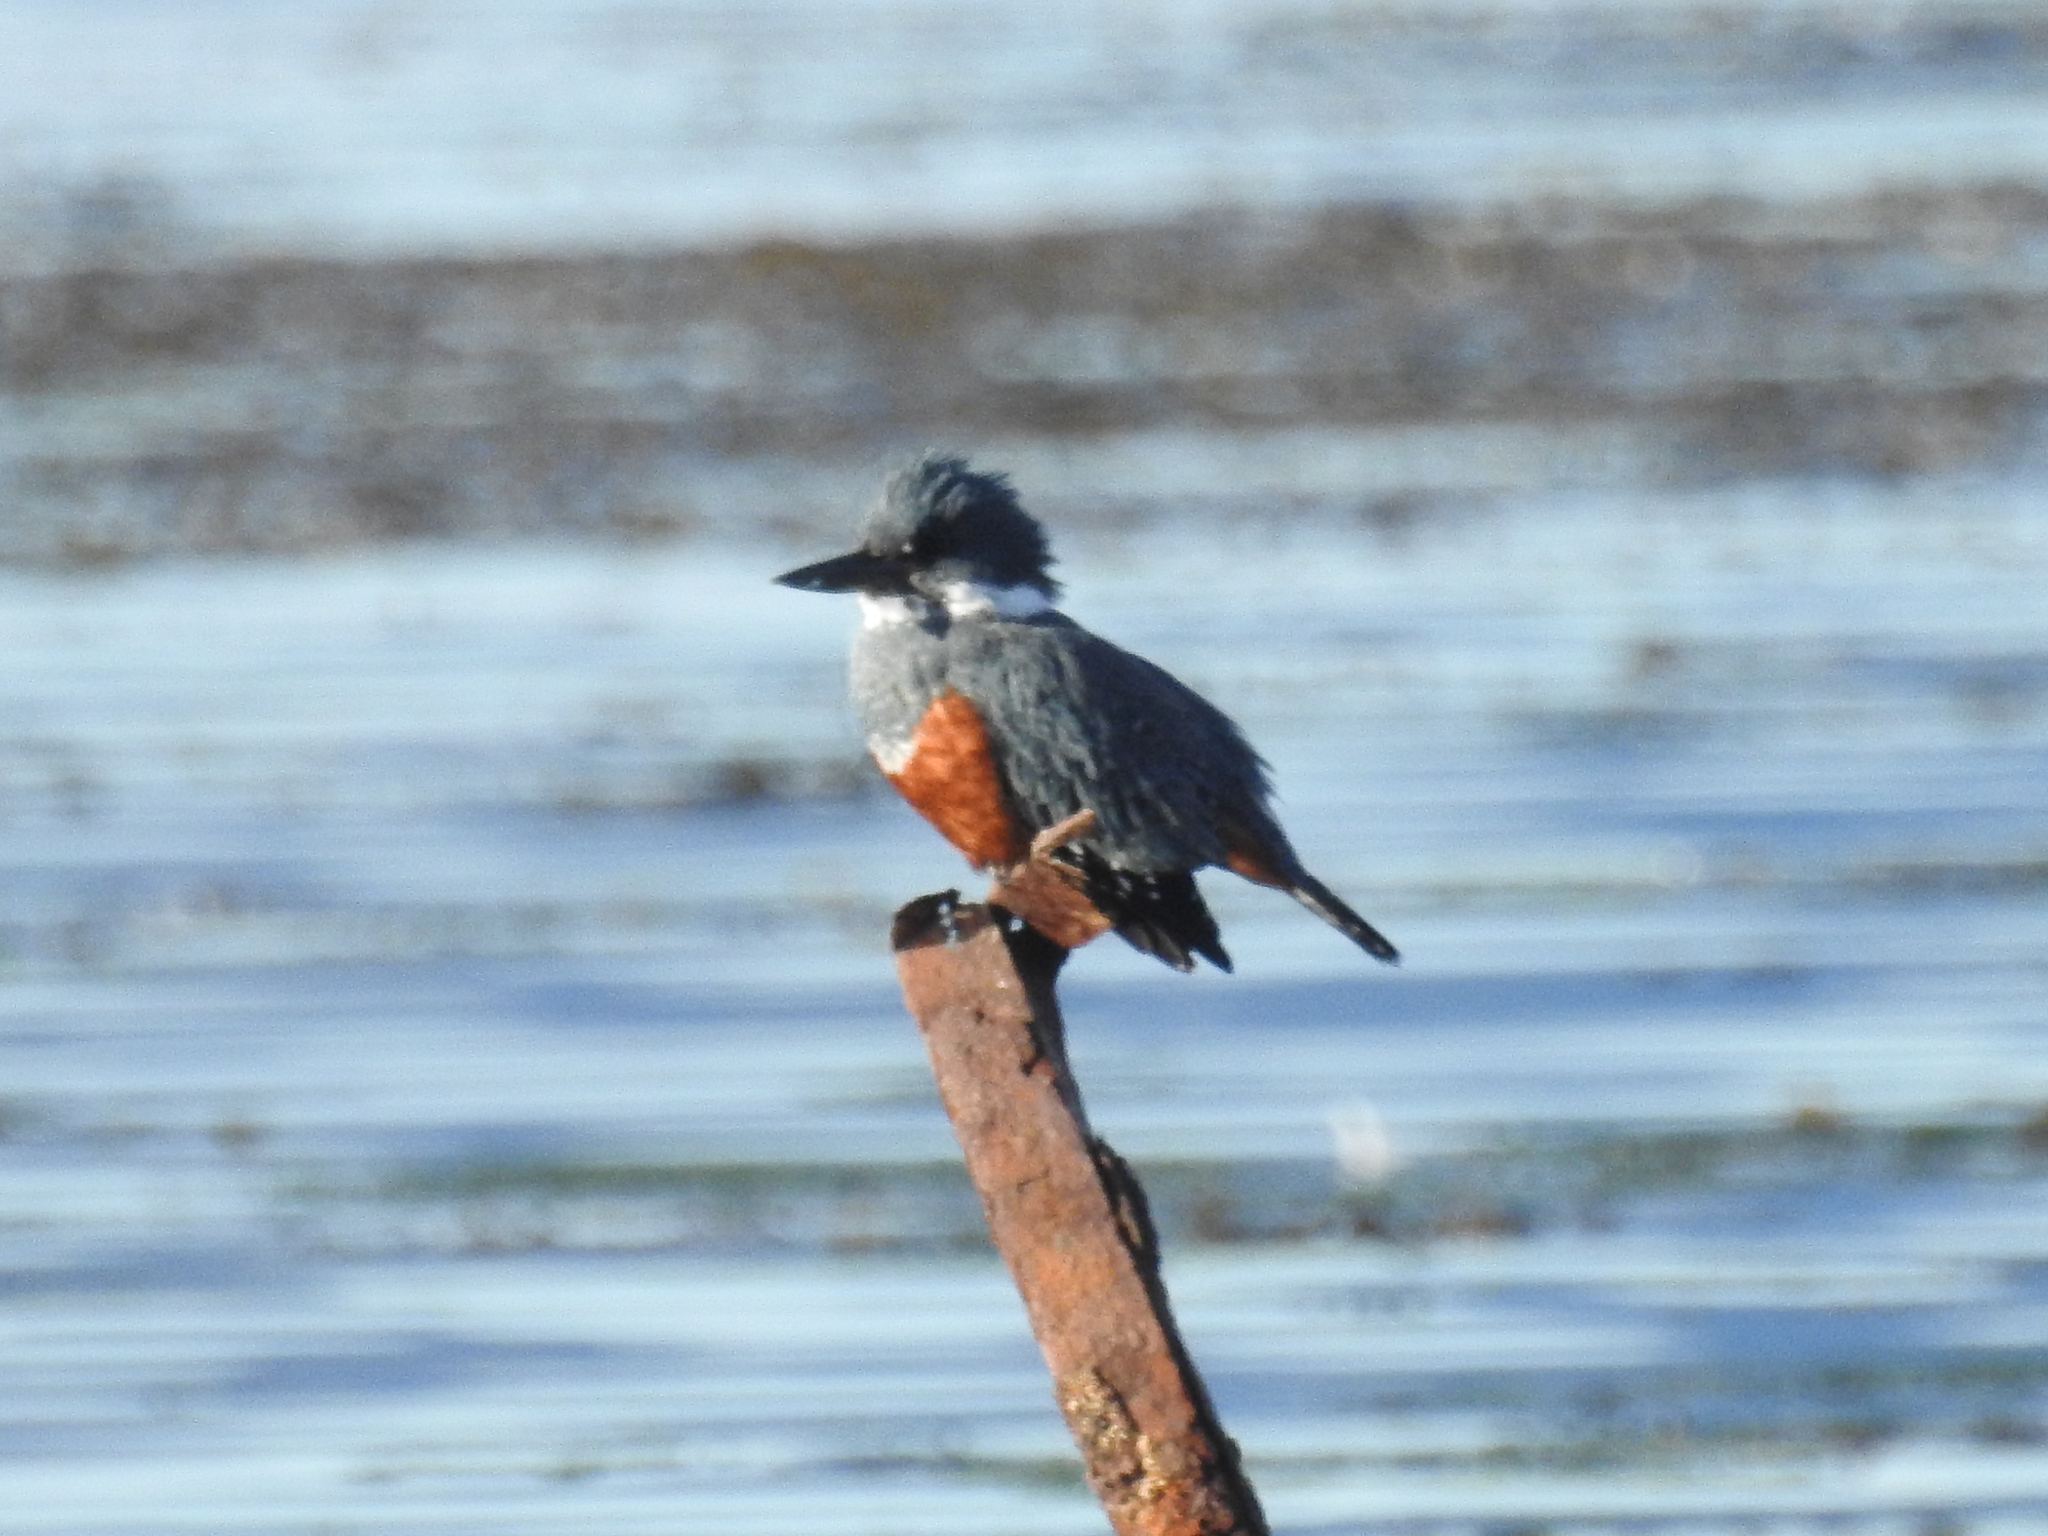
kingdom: Animalia
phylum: Chordata
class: Aves
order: Coraciiformes
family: Alcedinidae
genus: Megaceryle
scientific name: Megaceryle torquata
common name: Ringed kingfisher
